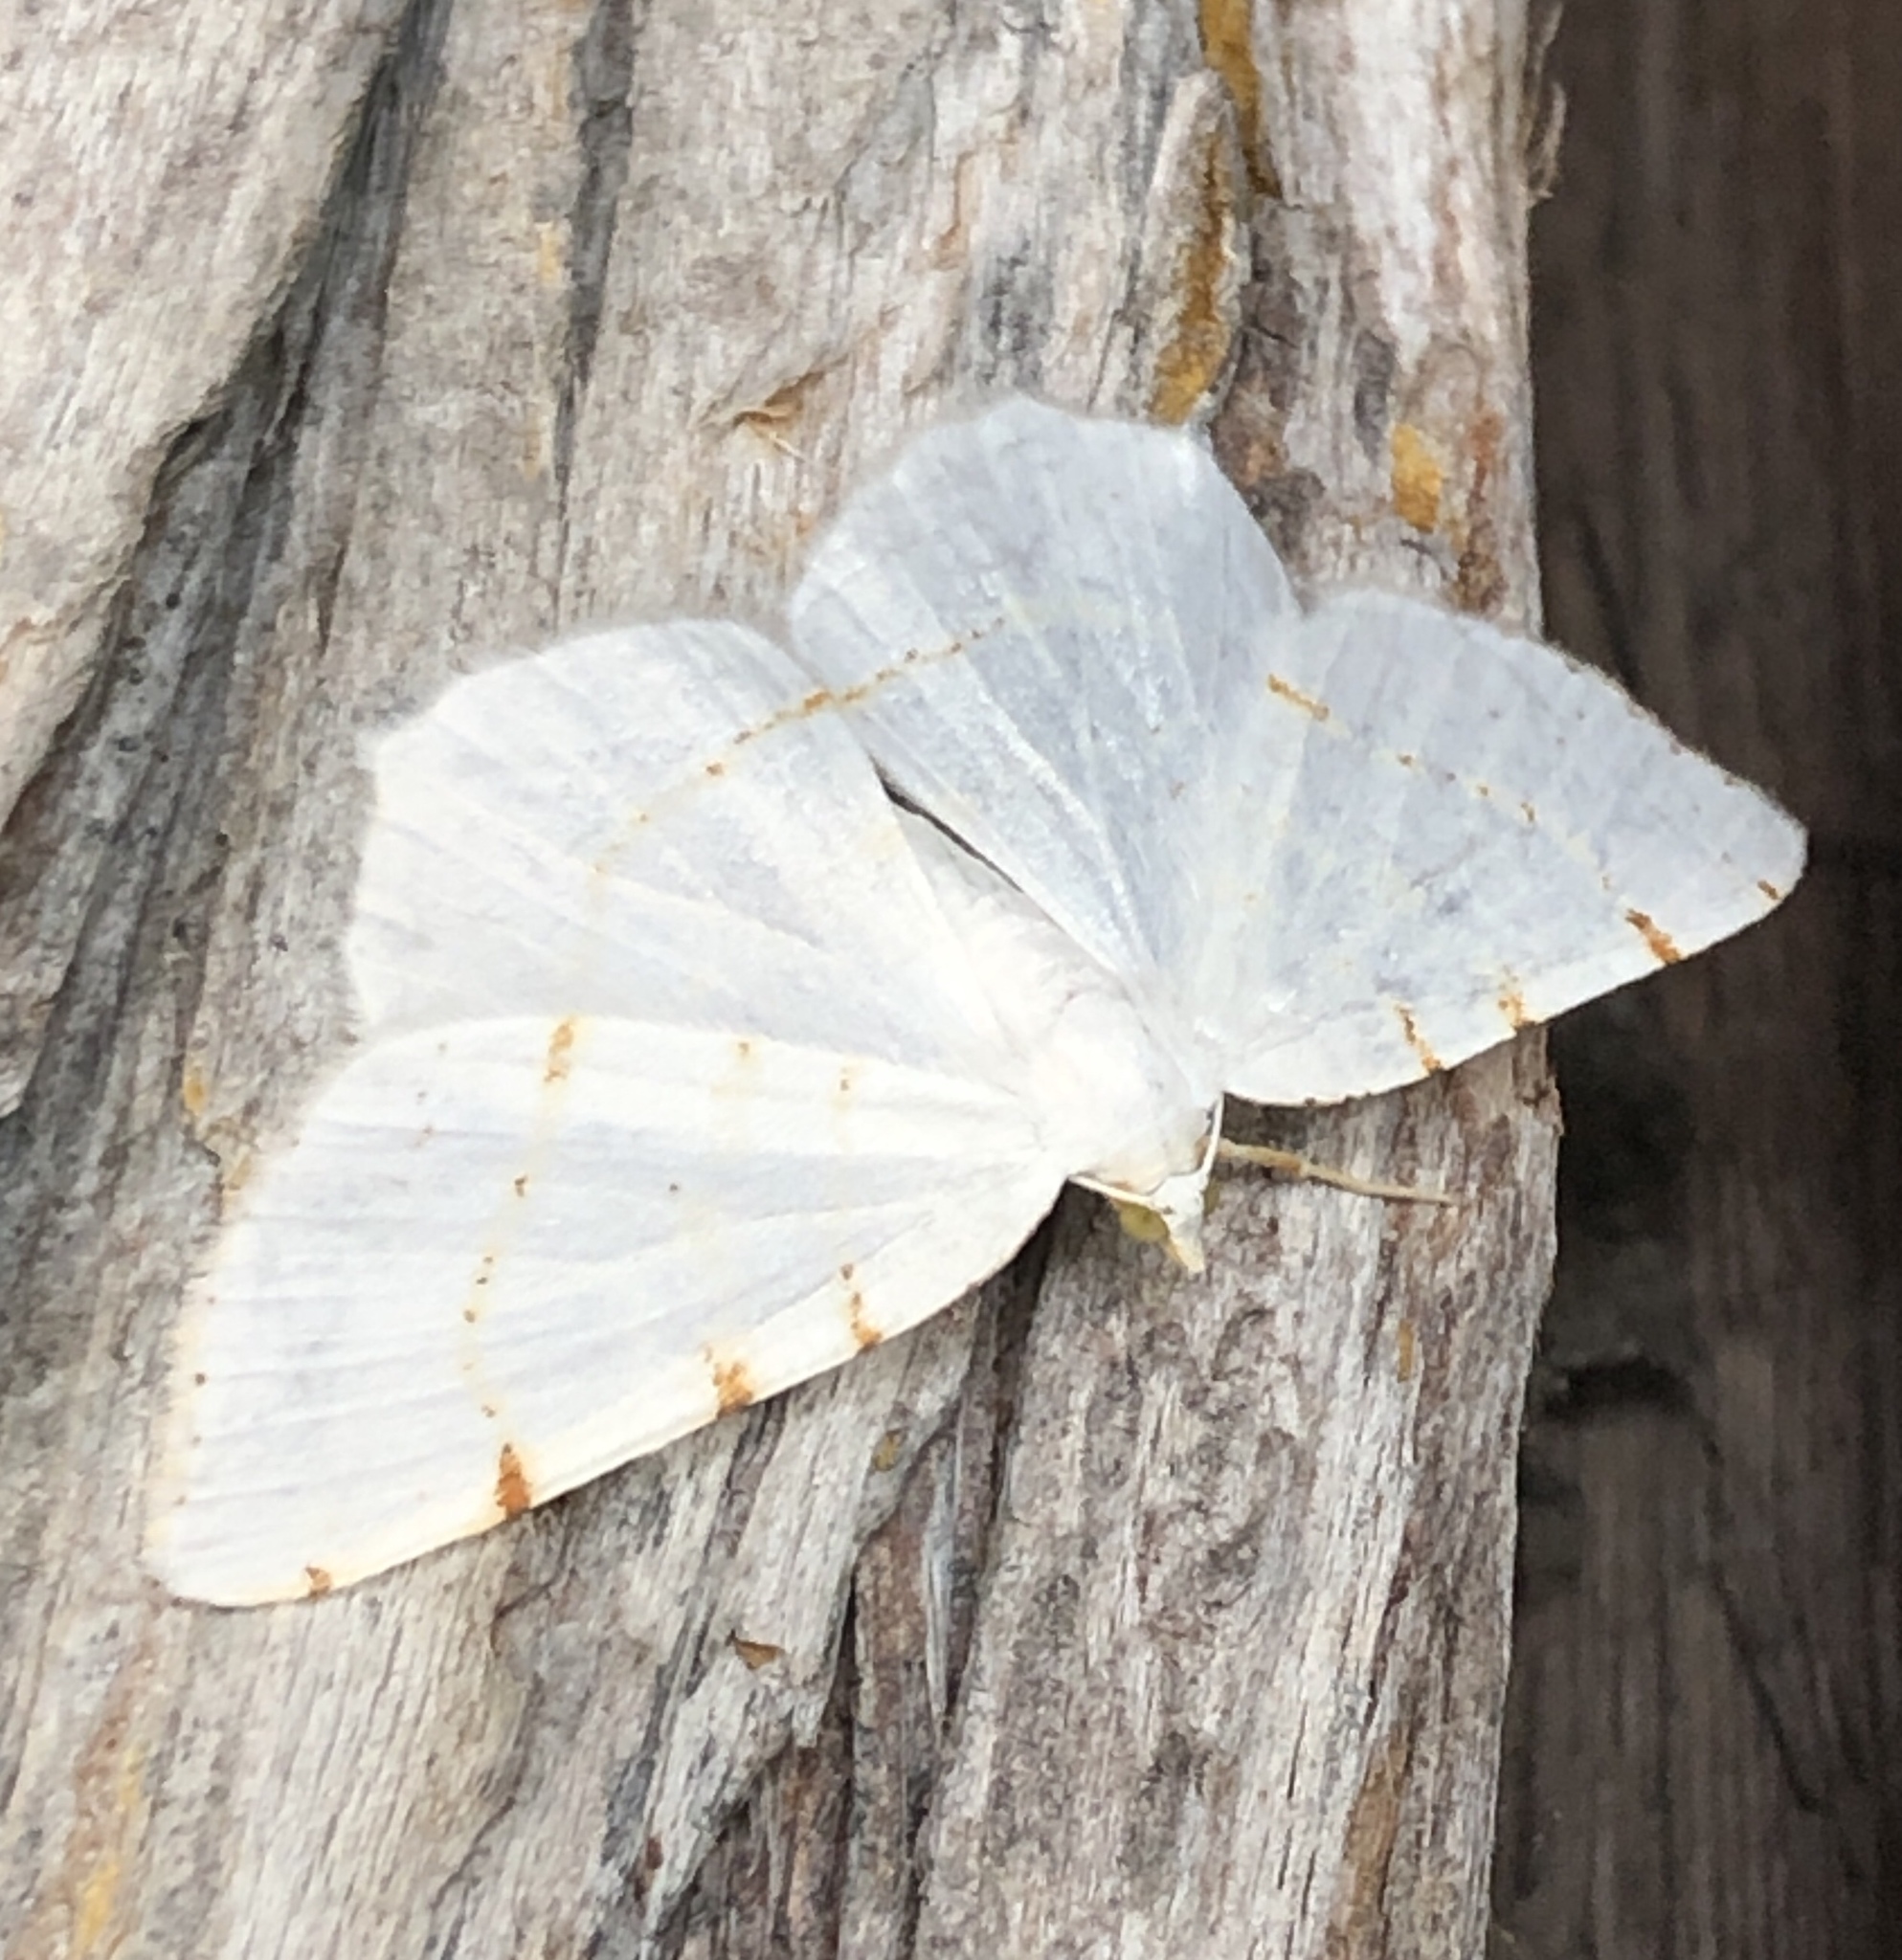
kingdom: Animalia
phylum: Arthropoda
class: Insecta
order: Lepidoptera
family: Geometridae
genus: Macaria
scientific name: Macaria pustularia
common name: Lesser maple spanworm moth
